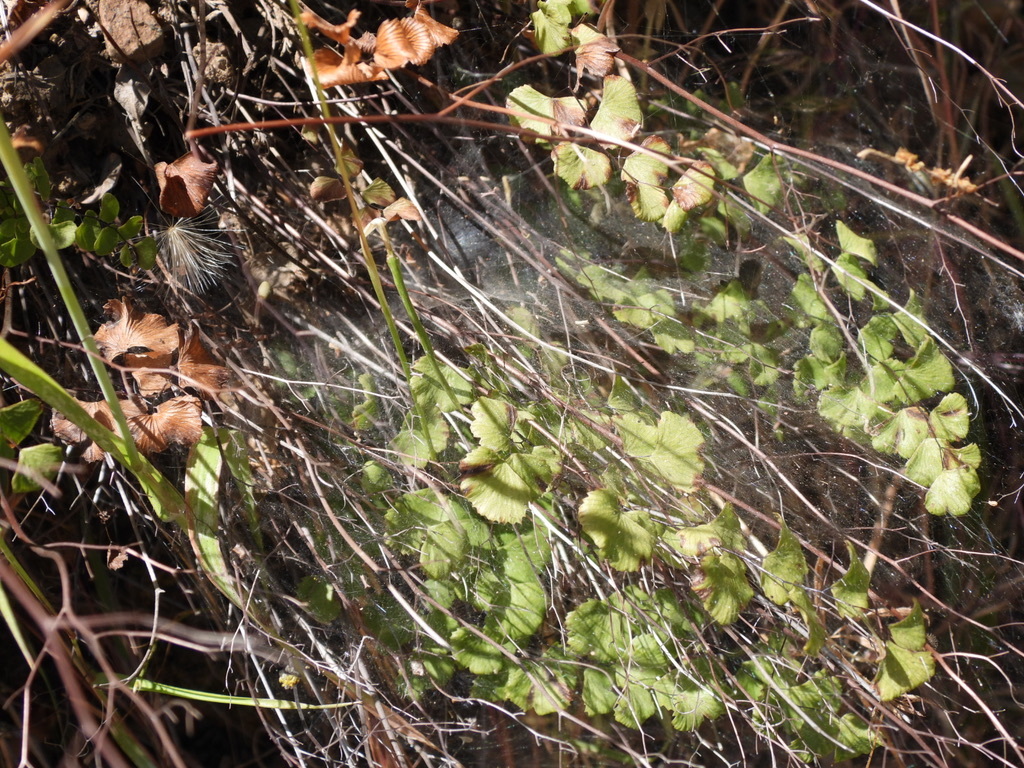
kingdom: Plantae
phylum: Tracheophyta
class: Polypodiopsida
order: Polypodiales
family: Pteridaceae
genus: Adiantum
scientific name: Adiantum jordanii
